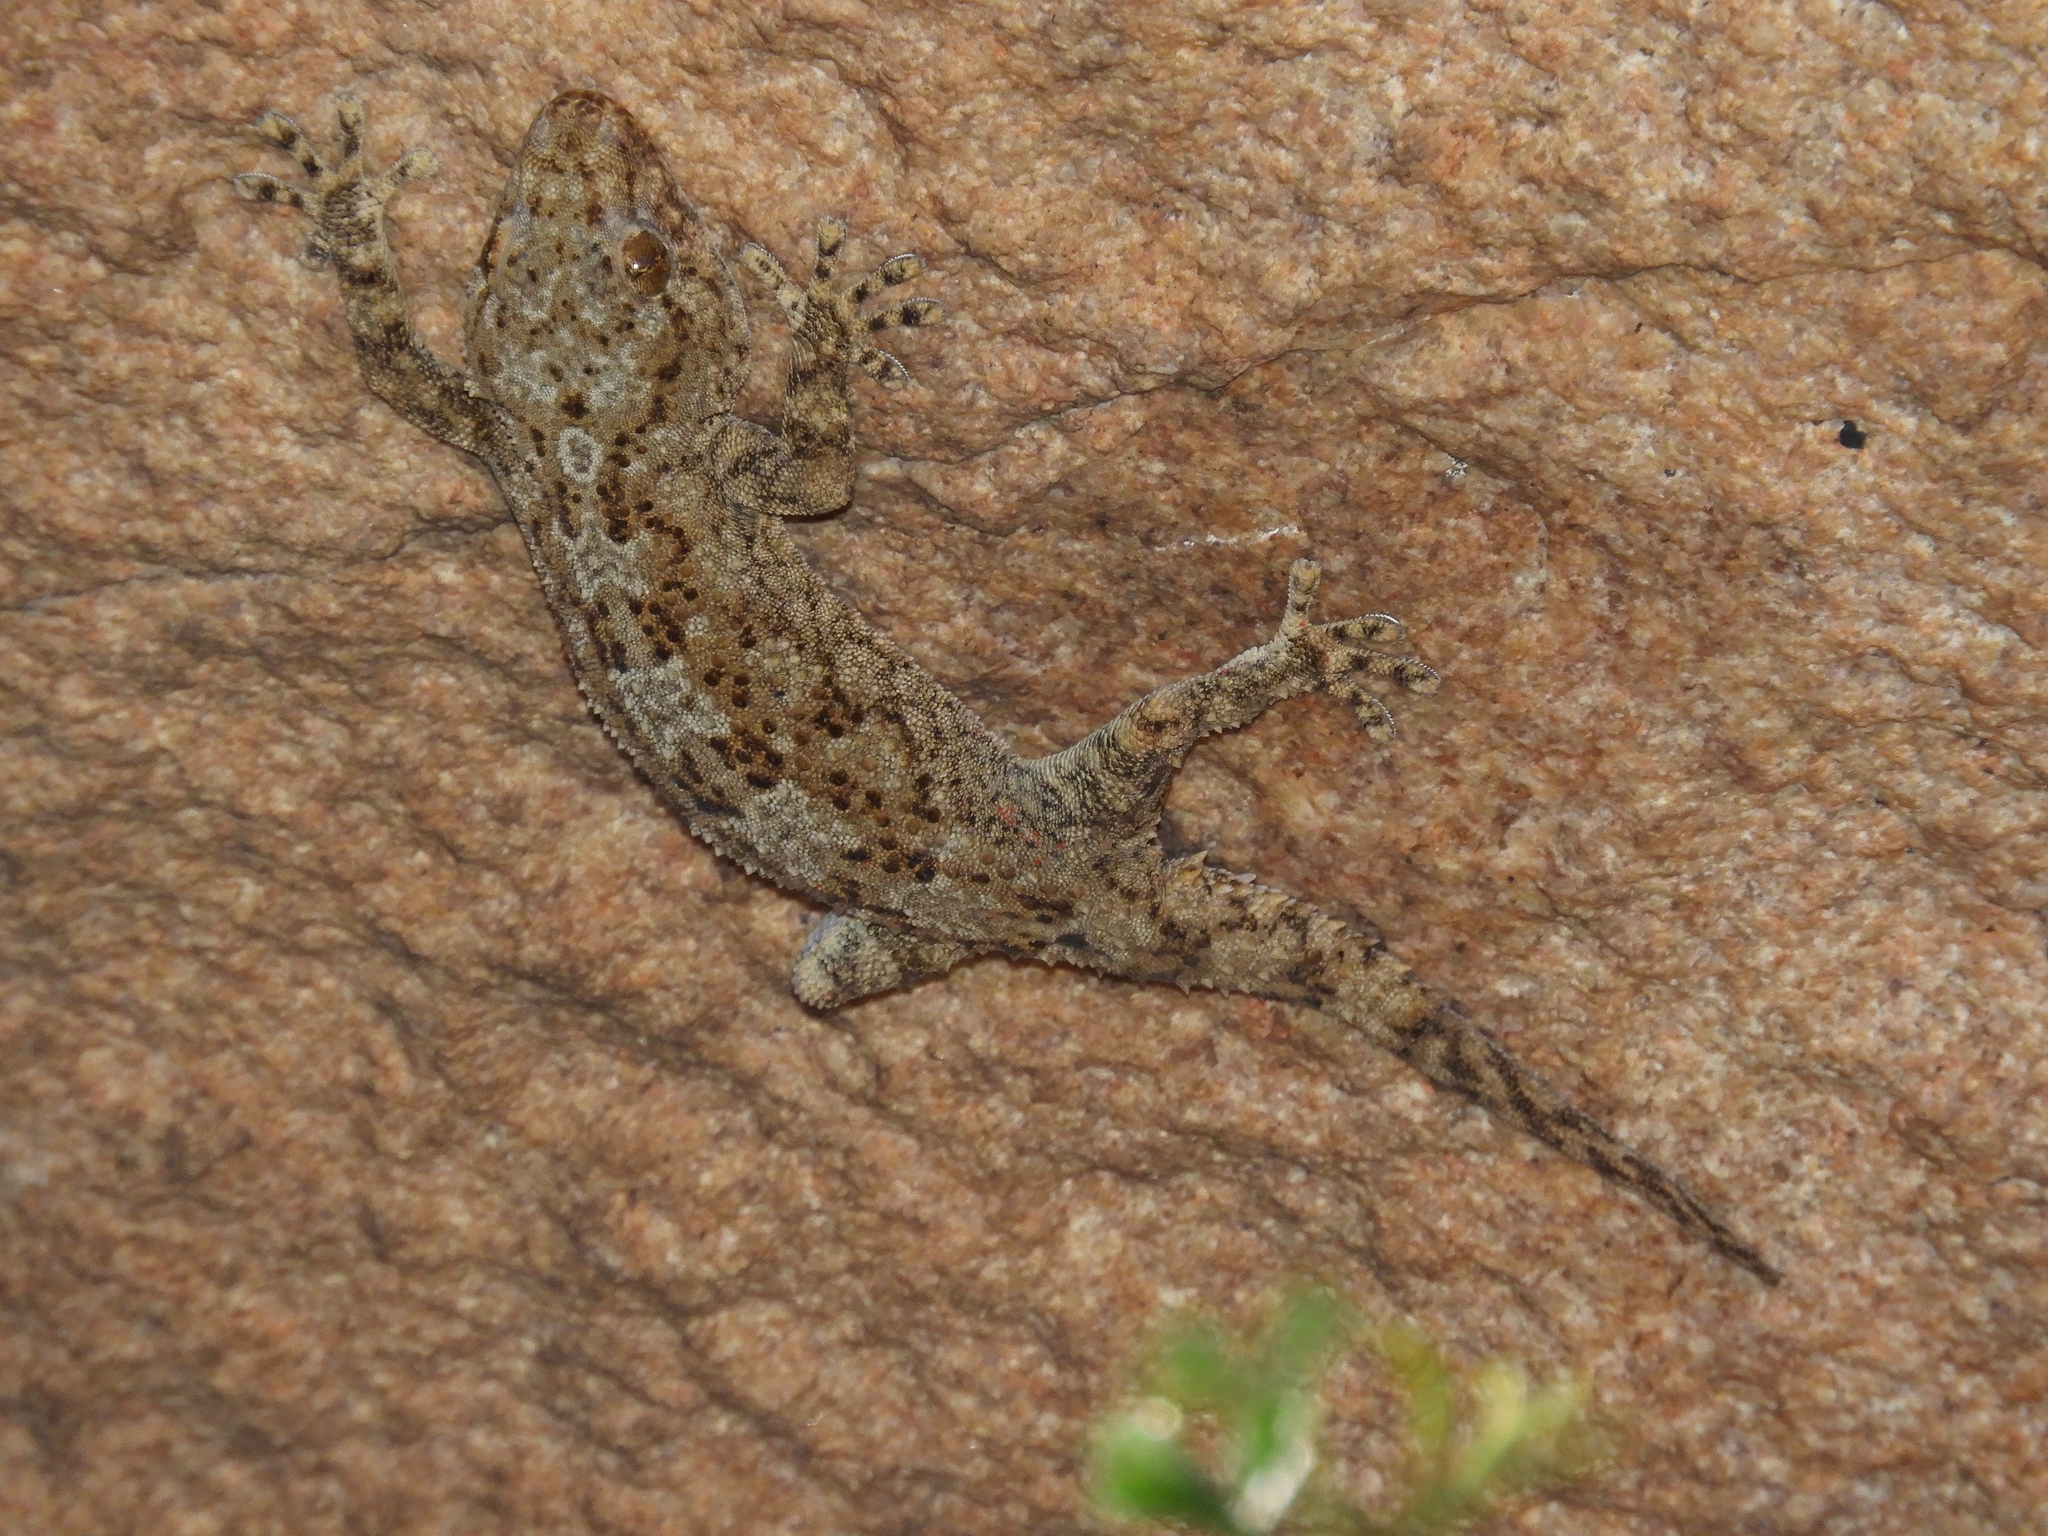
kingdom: Animalia
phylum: Chordata
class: Squamata
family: Gekkonidae
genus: Pachydactylus
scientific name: Pachydactylus namaquensis
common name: Namaqua gecko
